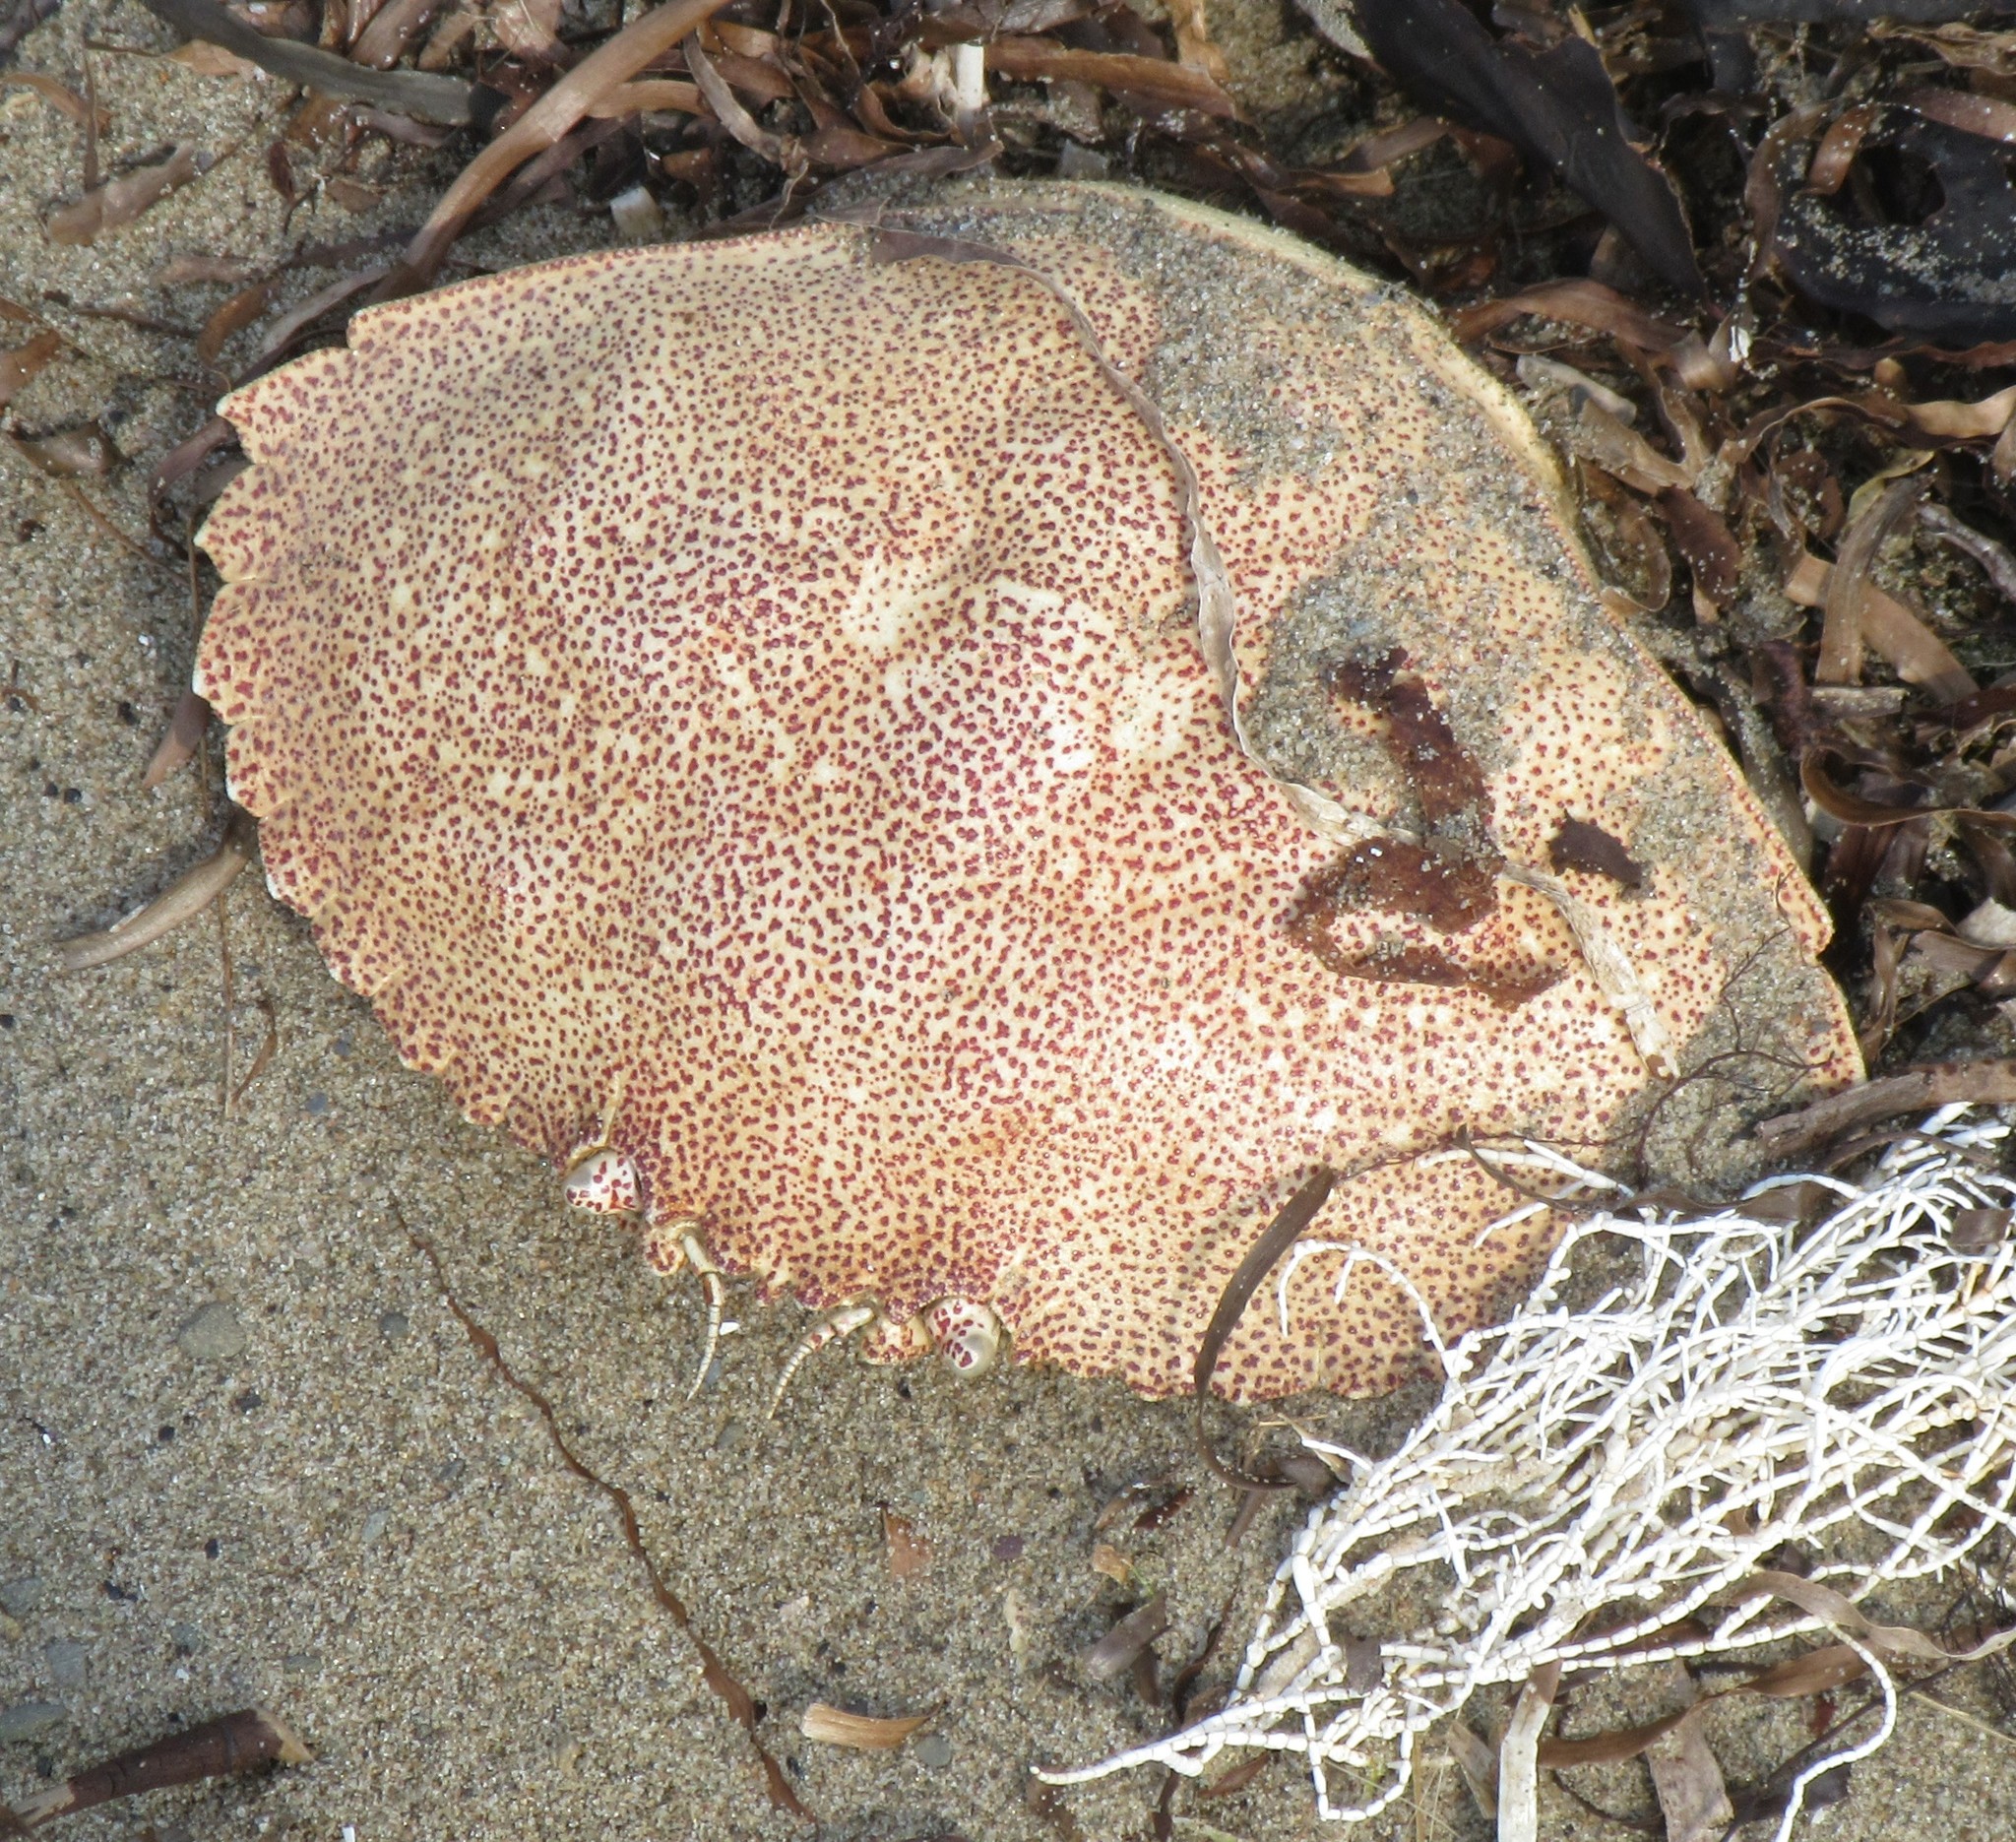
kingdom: Animalia
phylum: Arthropoda
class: Malacostraca
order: Decapoda
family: Cancridae
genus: Cancer
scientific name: Cancer irroratus
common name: Atlantic rock crab
